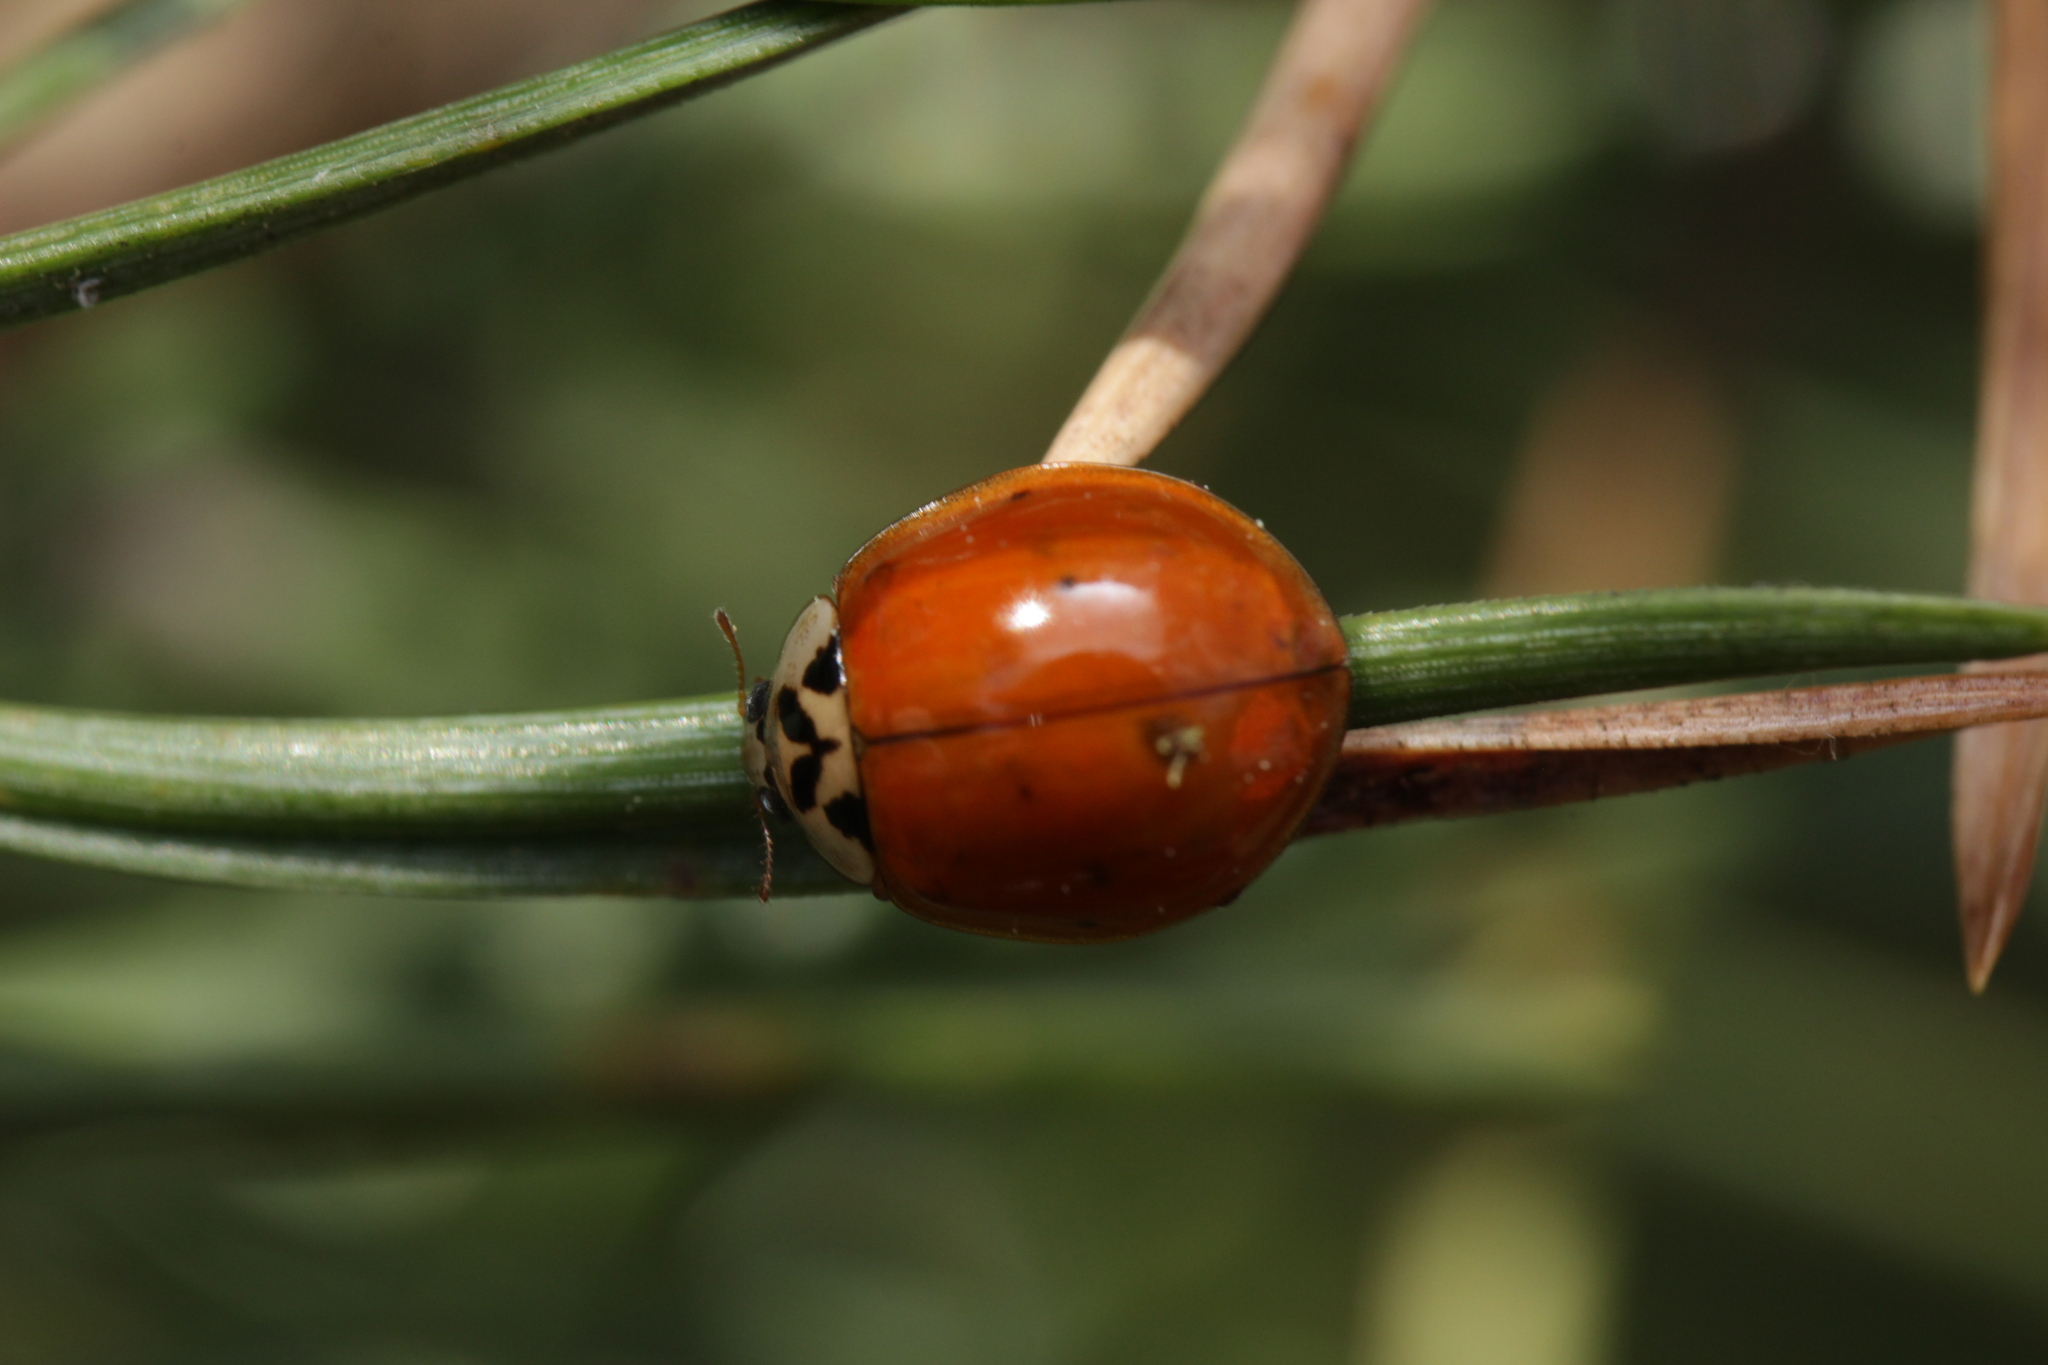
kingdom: Animalia
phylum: Arthropoda
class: Insecta
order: Coleoptera
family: Coccinellidae
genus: Harmonia
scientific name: Harmonia axyridis
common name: Harlequin ladybird
